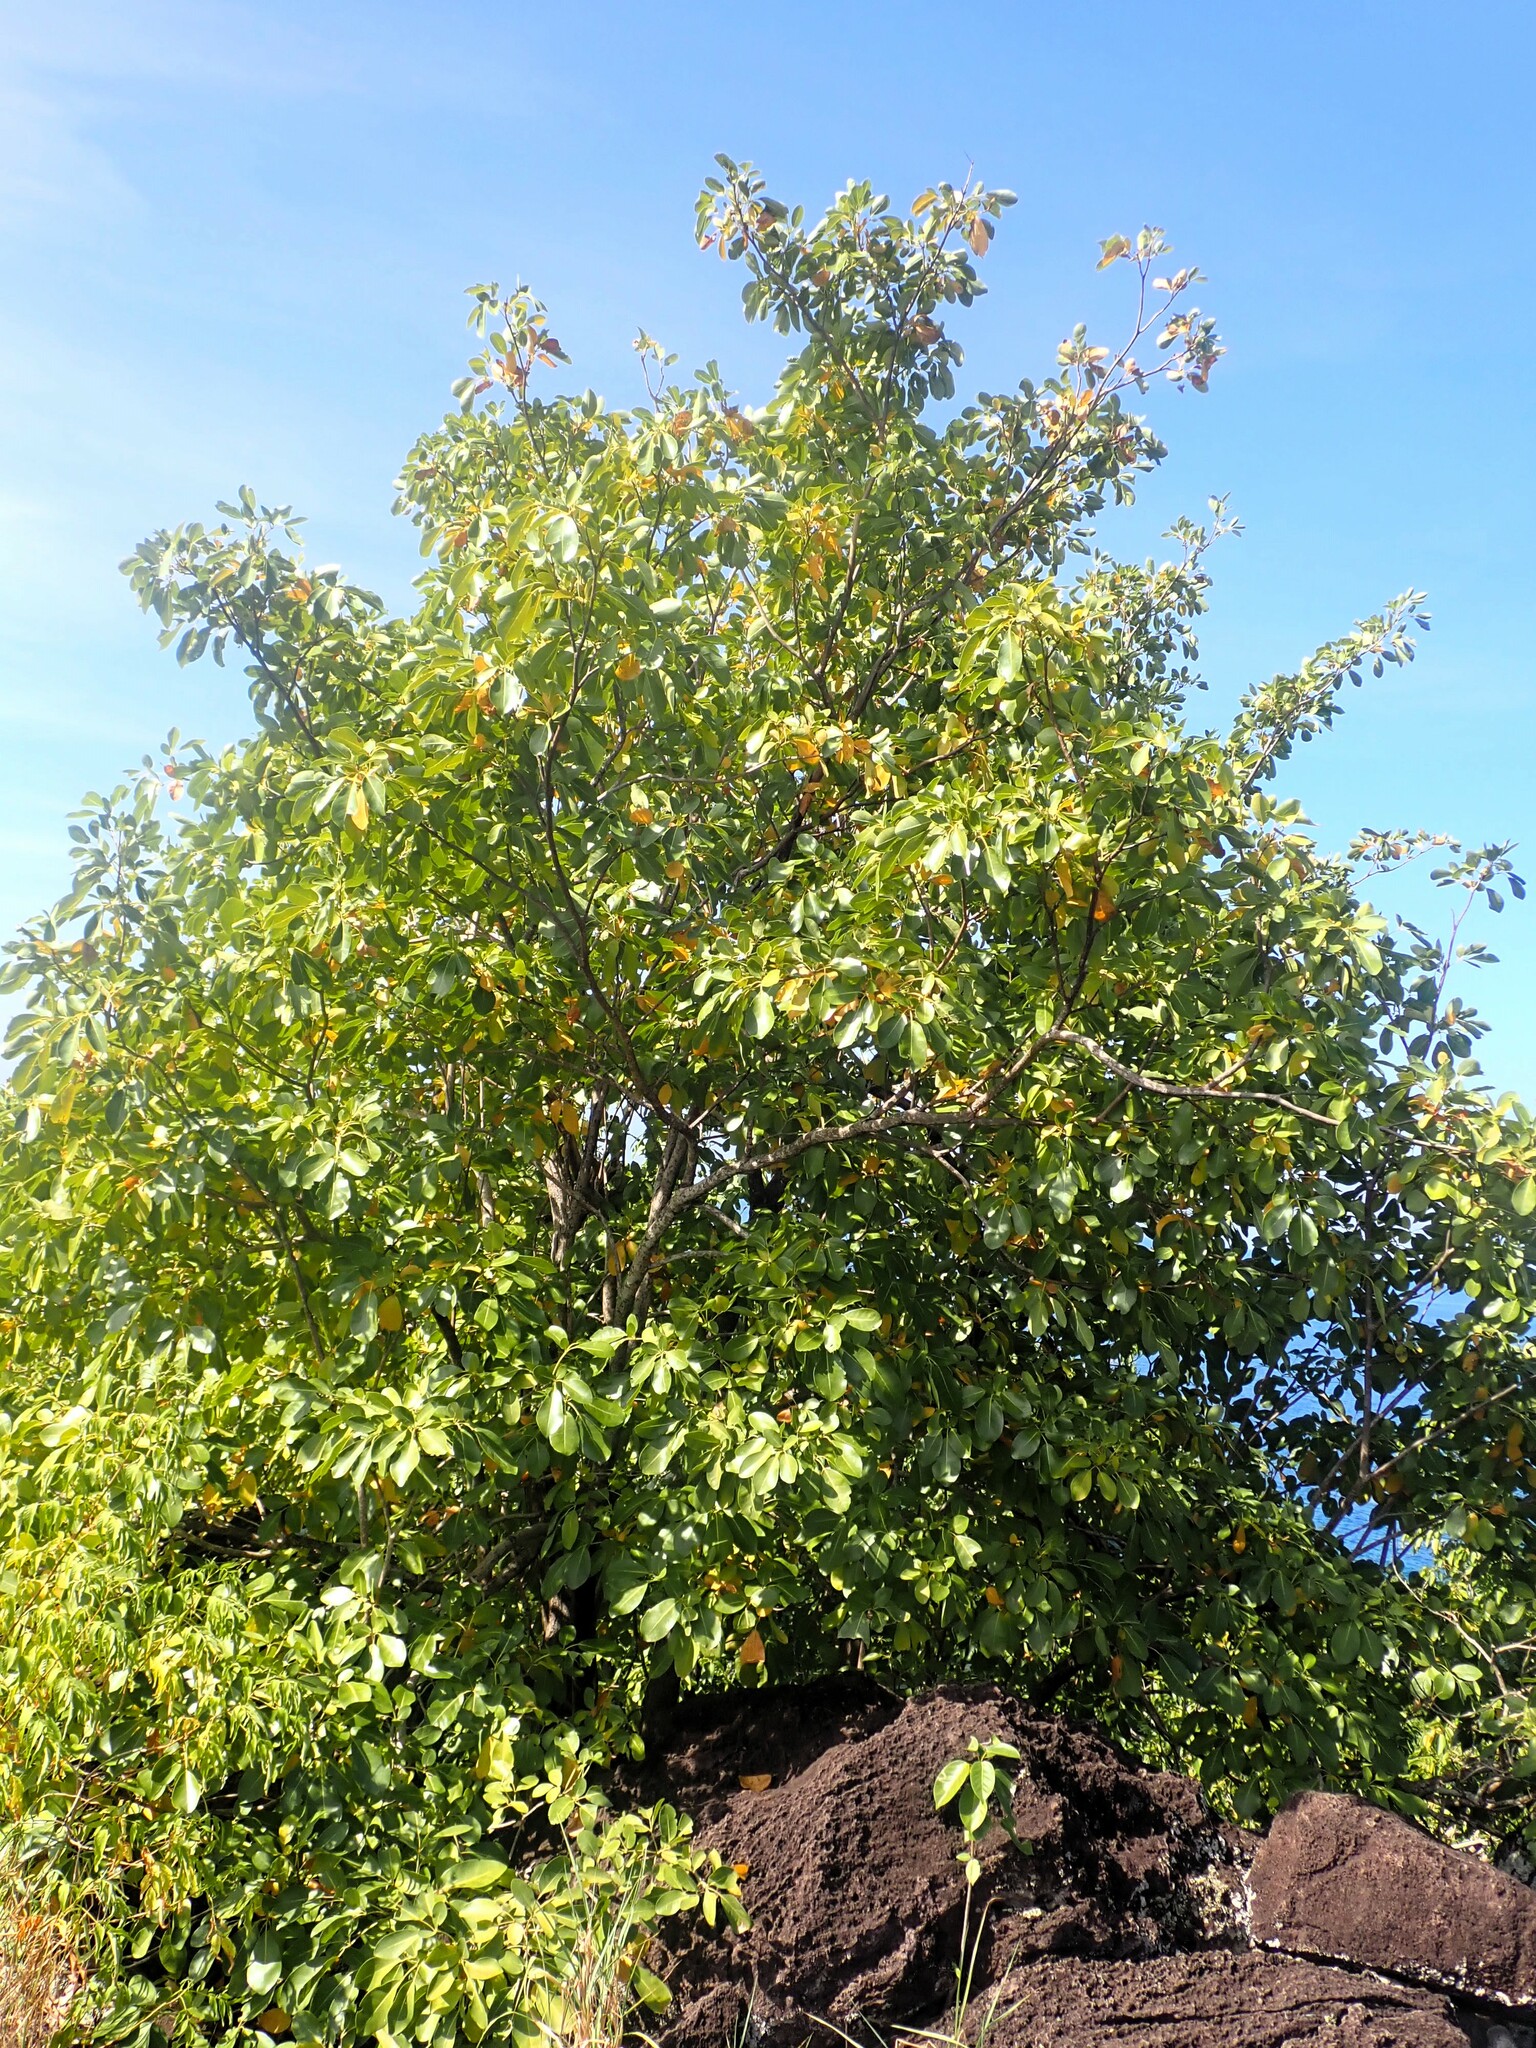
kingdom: Plantae
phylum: Tracheophyta
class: Magnoliopsida
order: Malpighiales
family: Euphorbiaceae
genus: Hippomane
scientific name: Hippomane mancinella
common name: Manchineel
